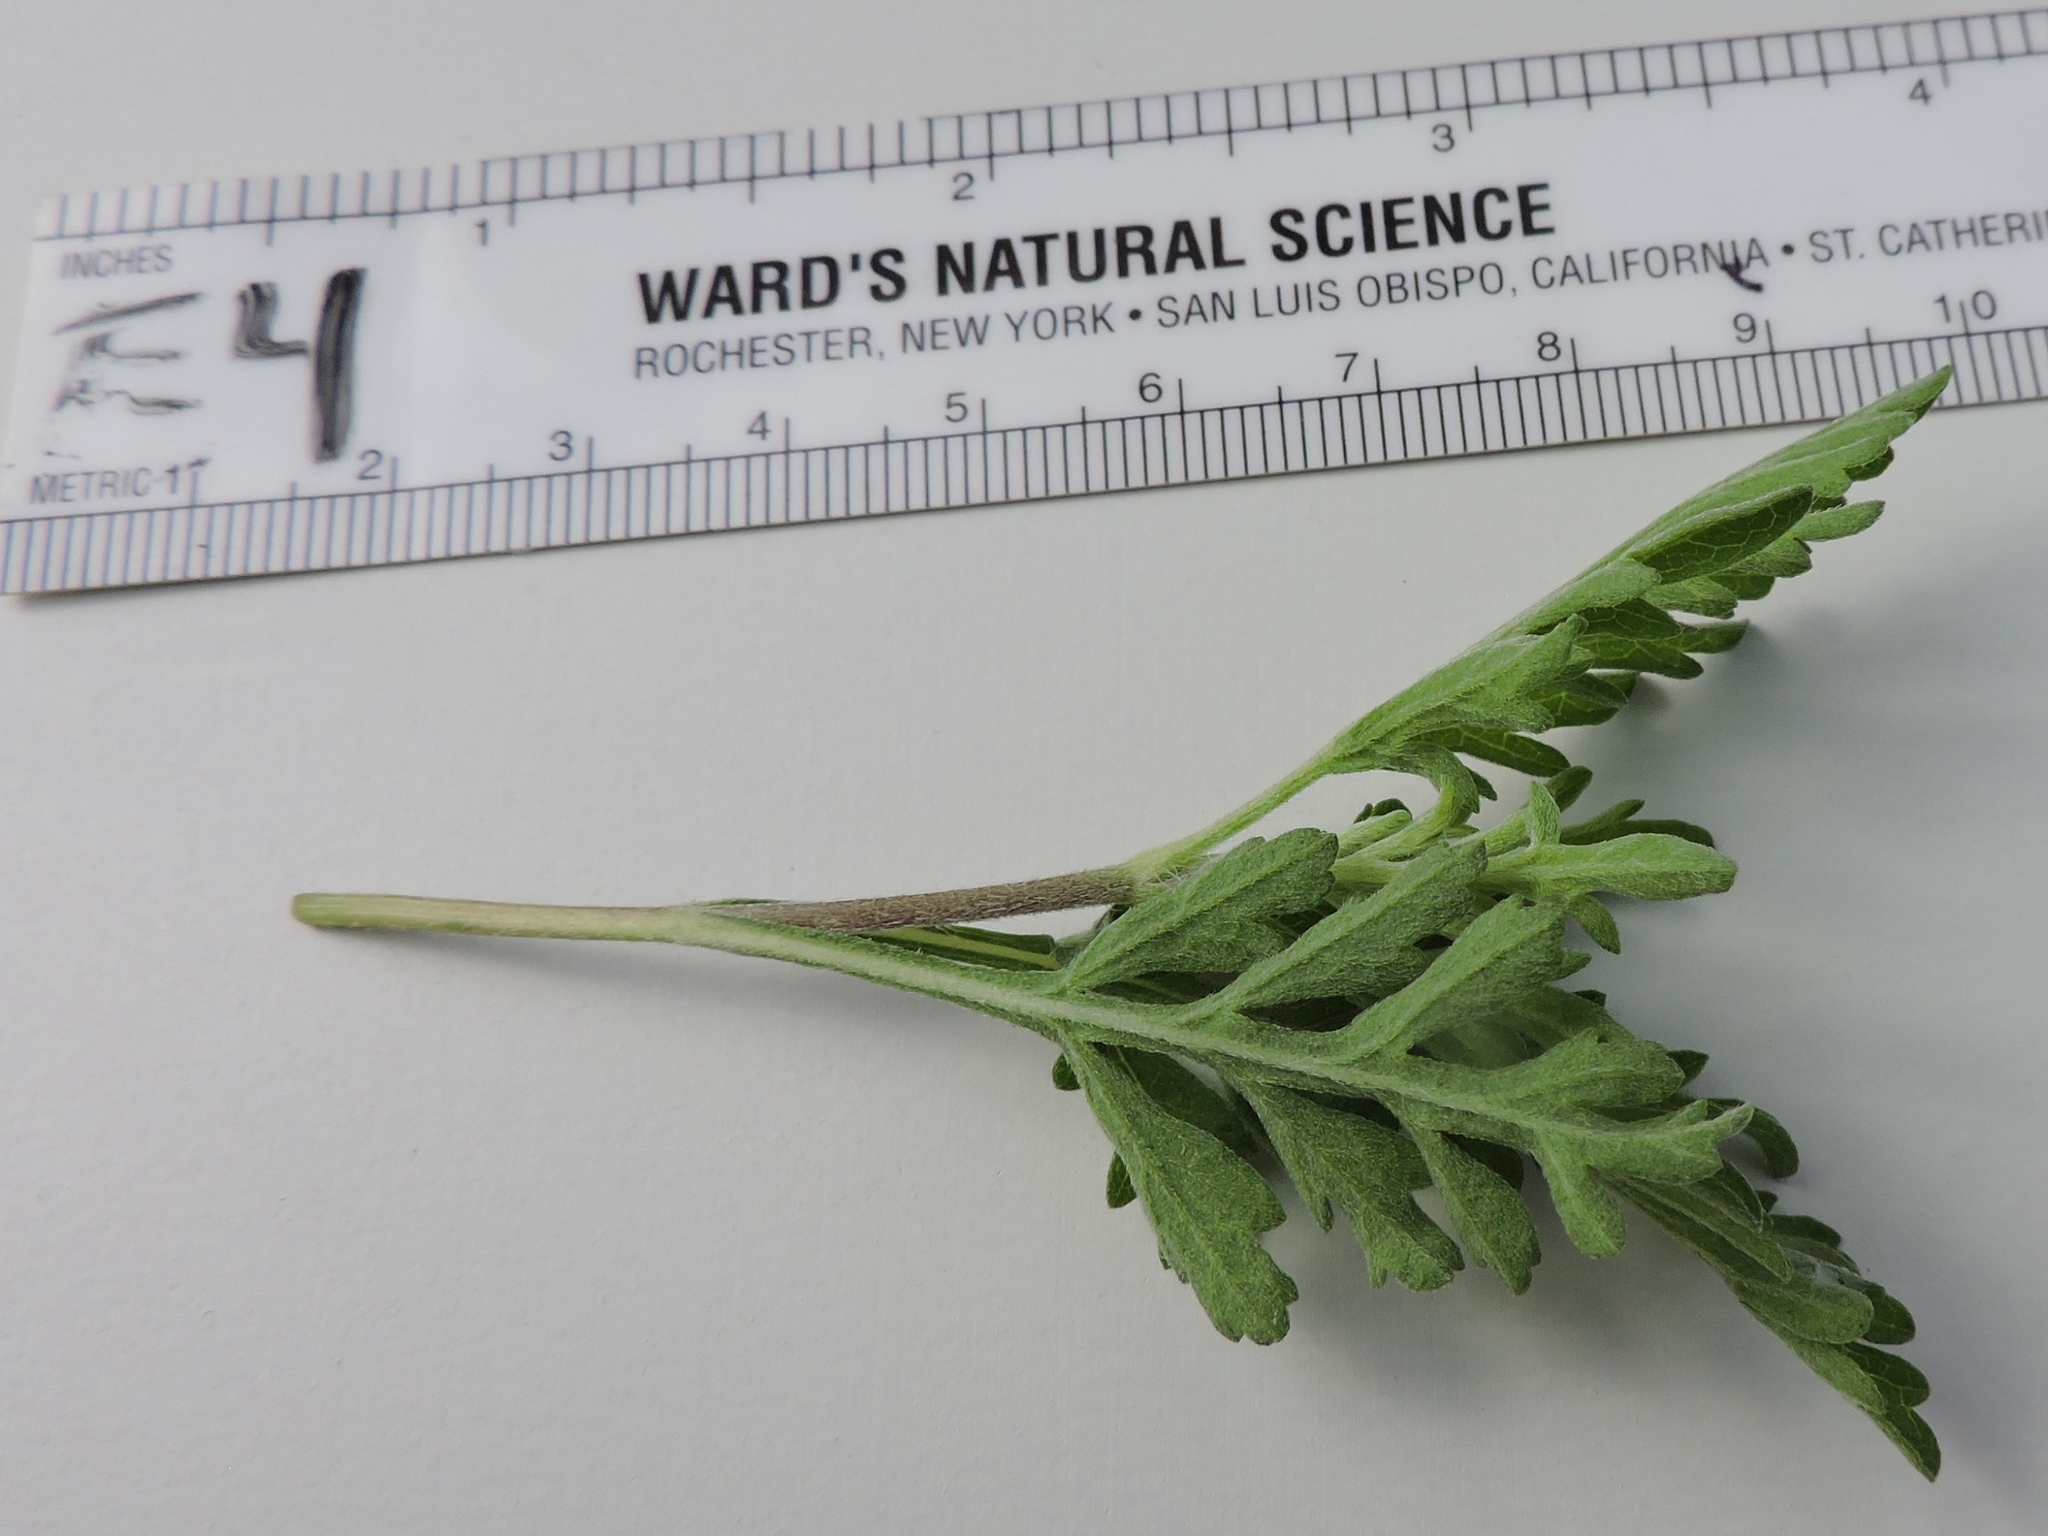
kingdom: Plantae
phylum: Tracheophyta
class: Magnoliopsida
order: Asterales
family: Asteraceae
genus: Ambrosia
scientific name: Ambrosia psilostachya
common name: Perennial ragweed
